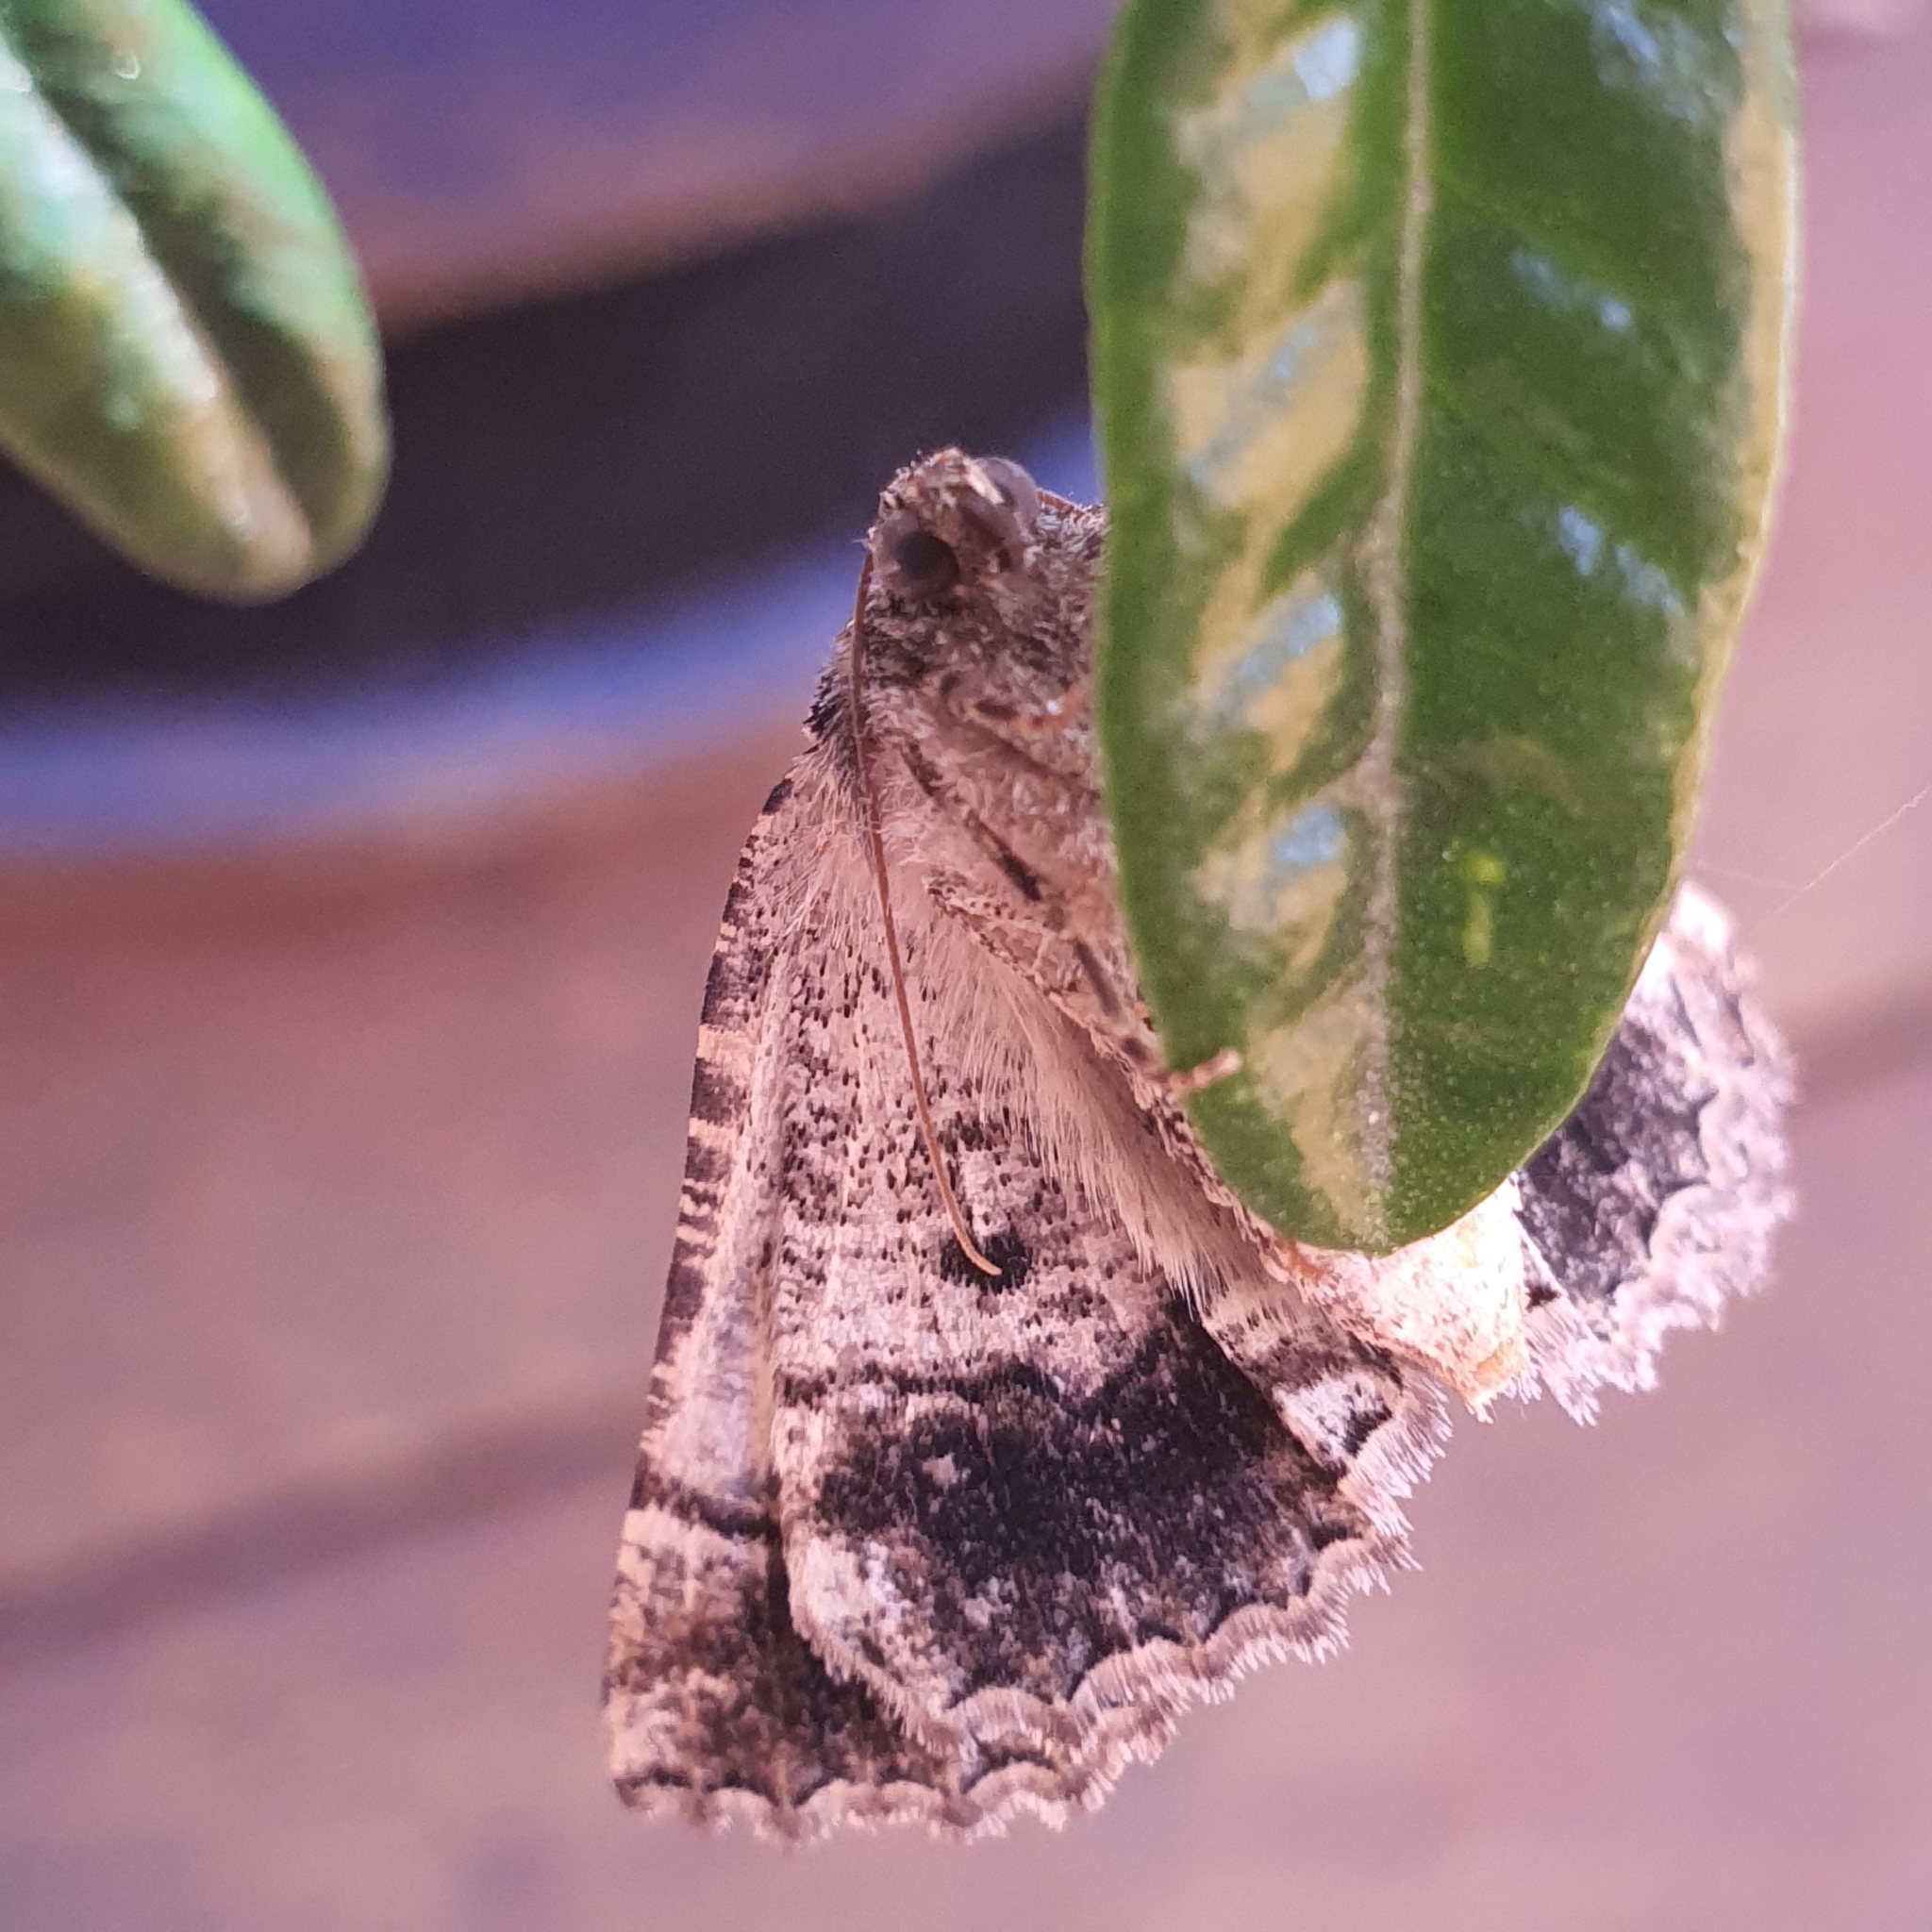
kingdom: Animalia
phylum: Arthropoda
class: Insecta
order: Lepidoptera
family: Geometridae
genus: Gastrina
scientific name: Gastrina cristaria
